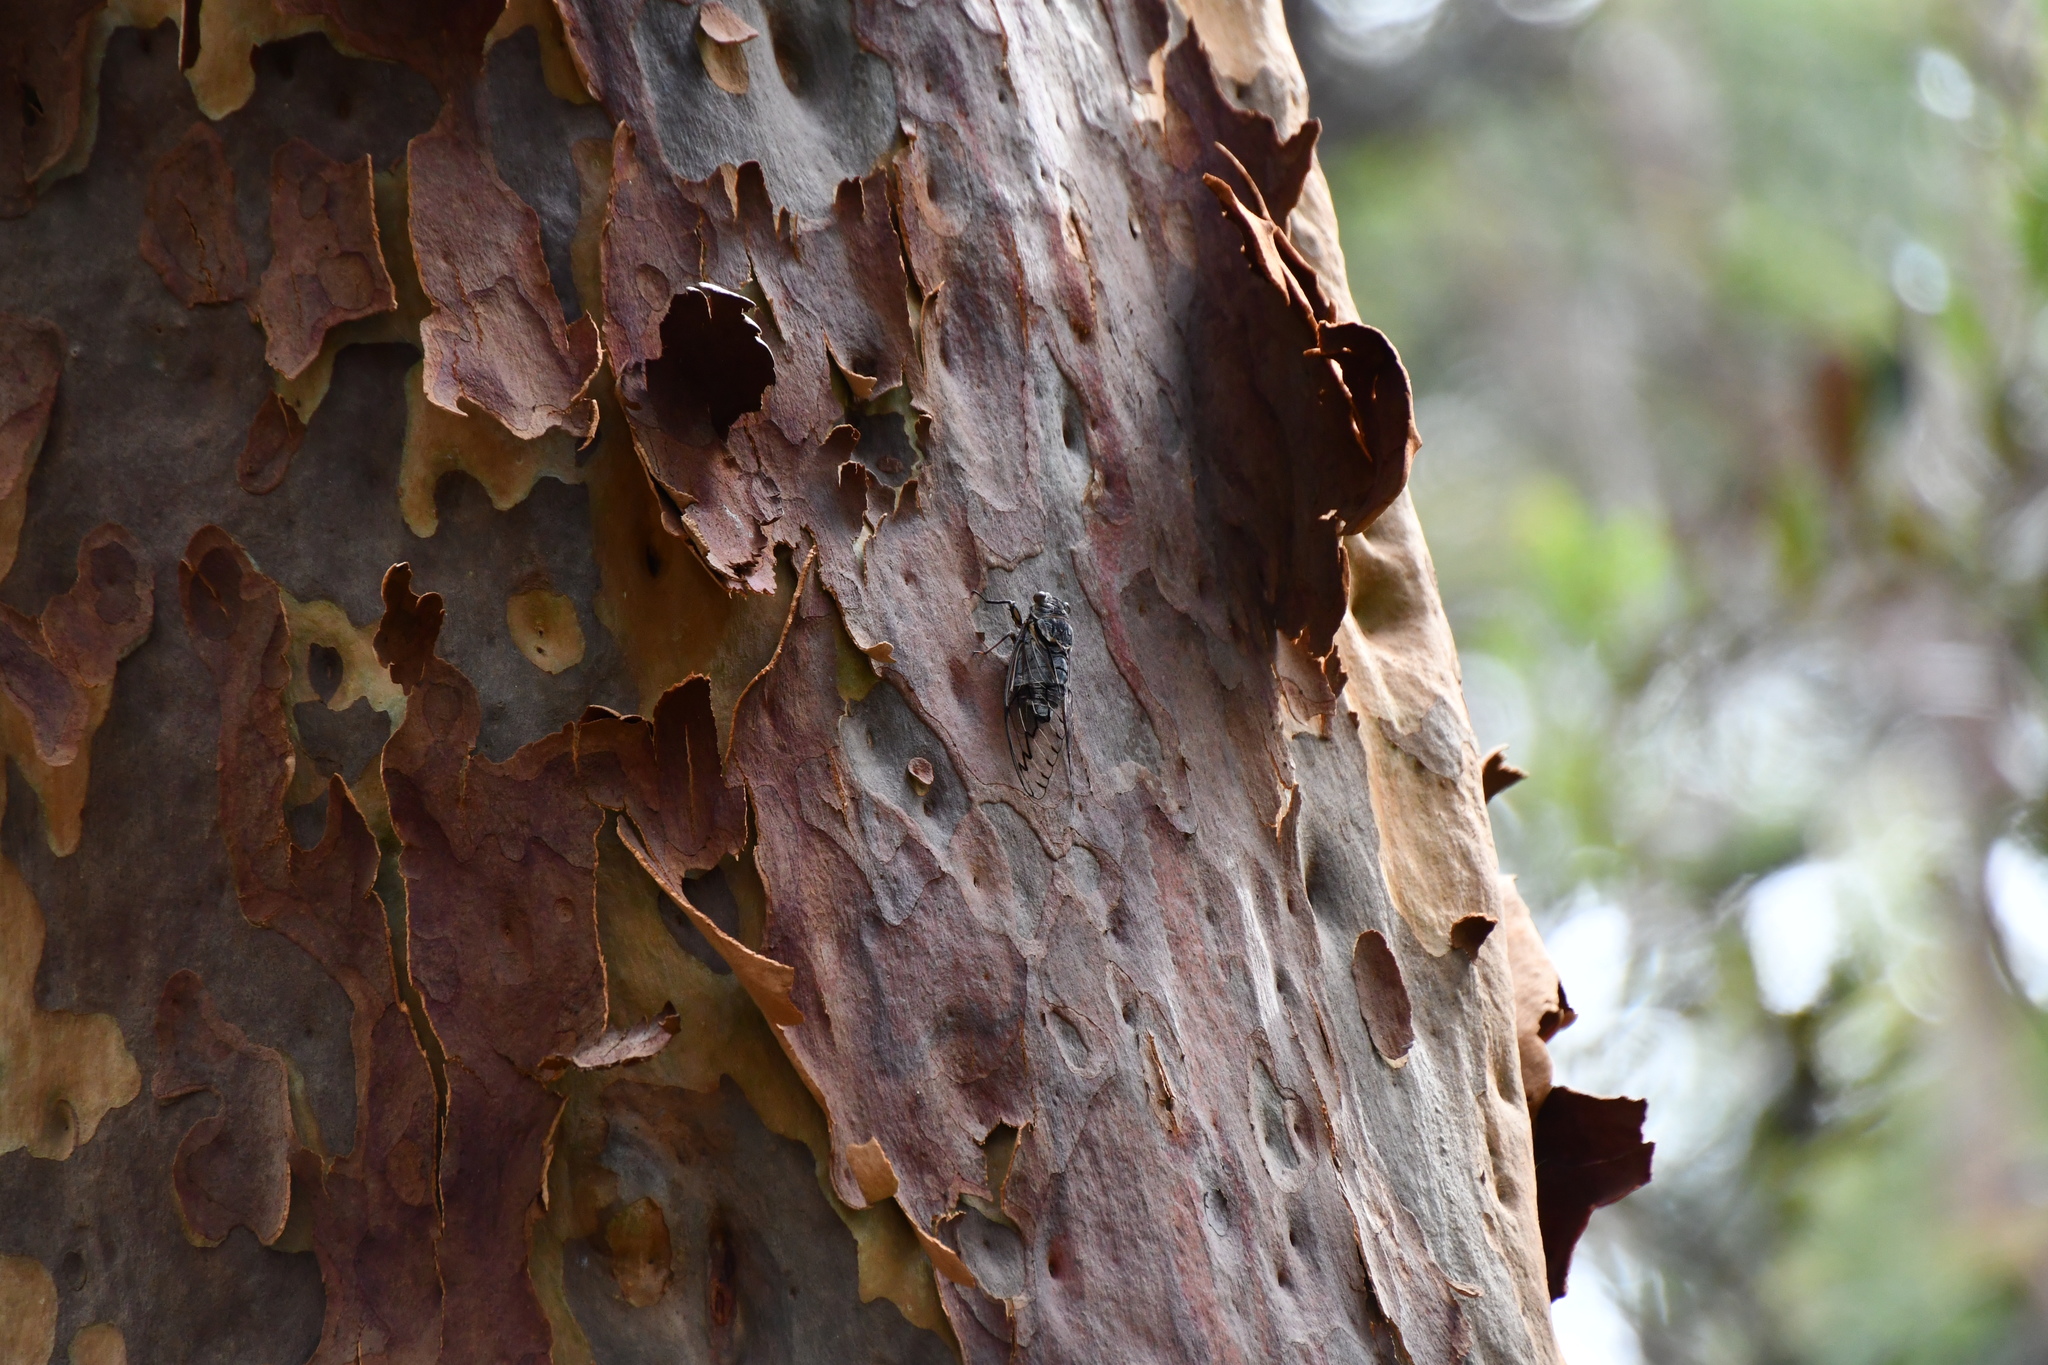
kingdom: Animalia
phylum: Arthropoda
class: Insecta
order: Hemiptera
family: Cicadidae
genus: Henicopsaltria
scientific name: Henicopsaltria eydouxii
